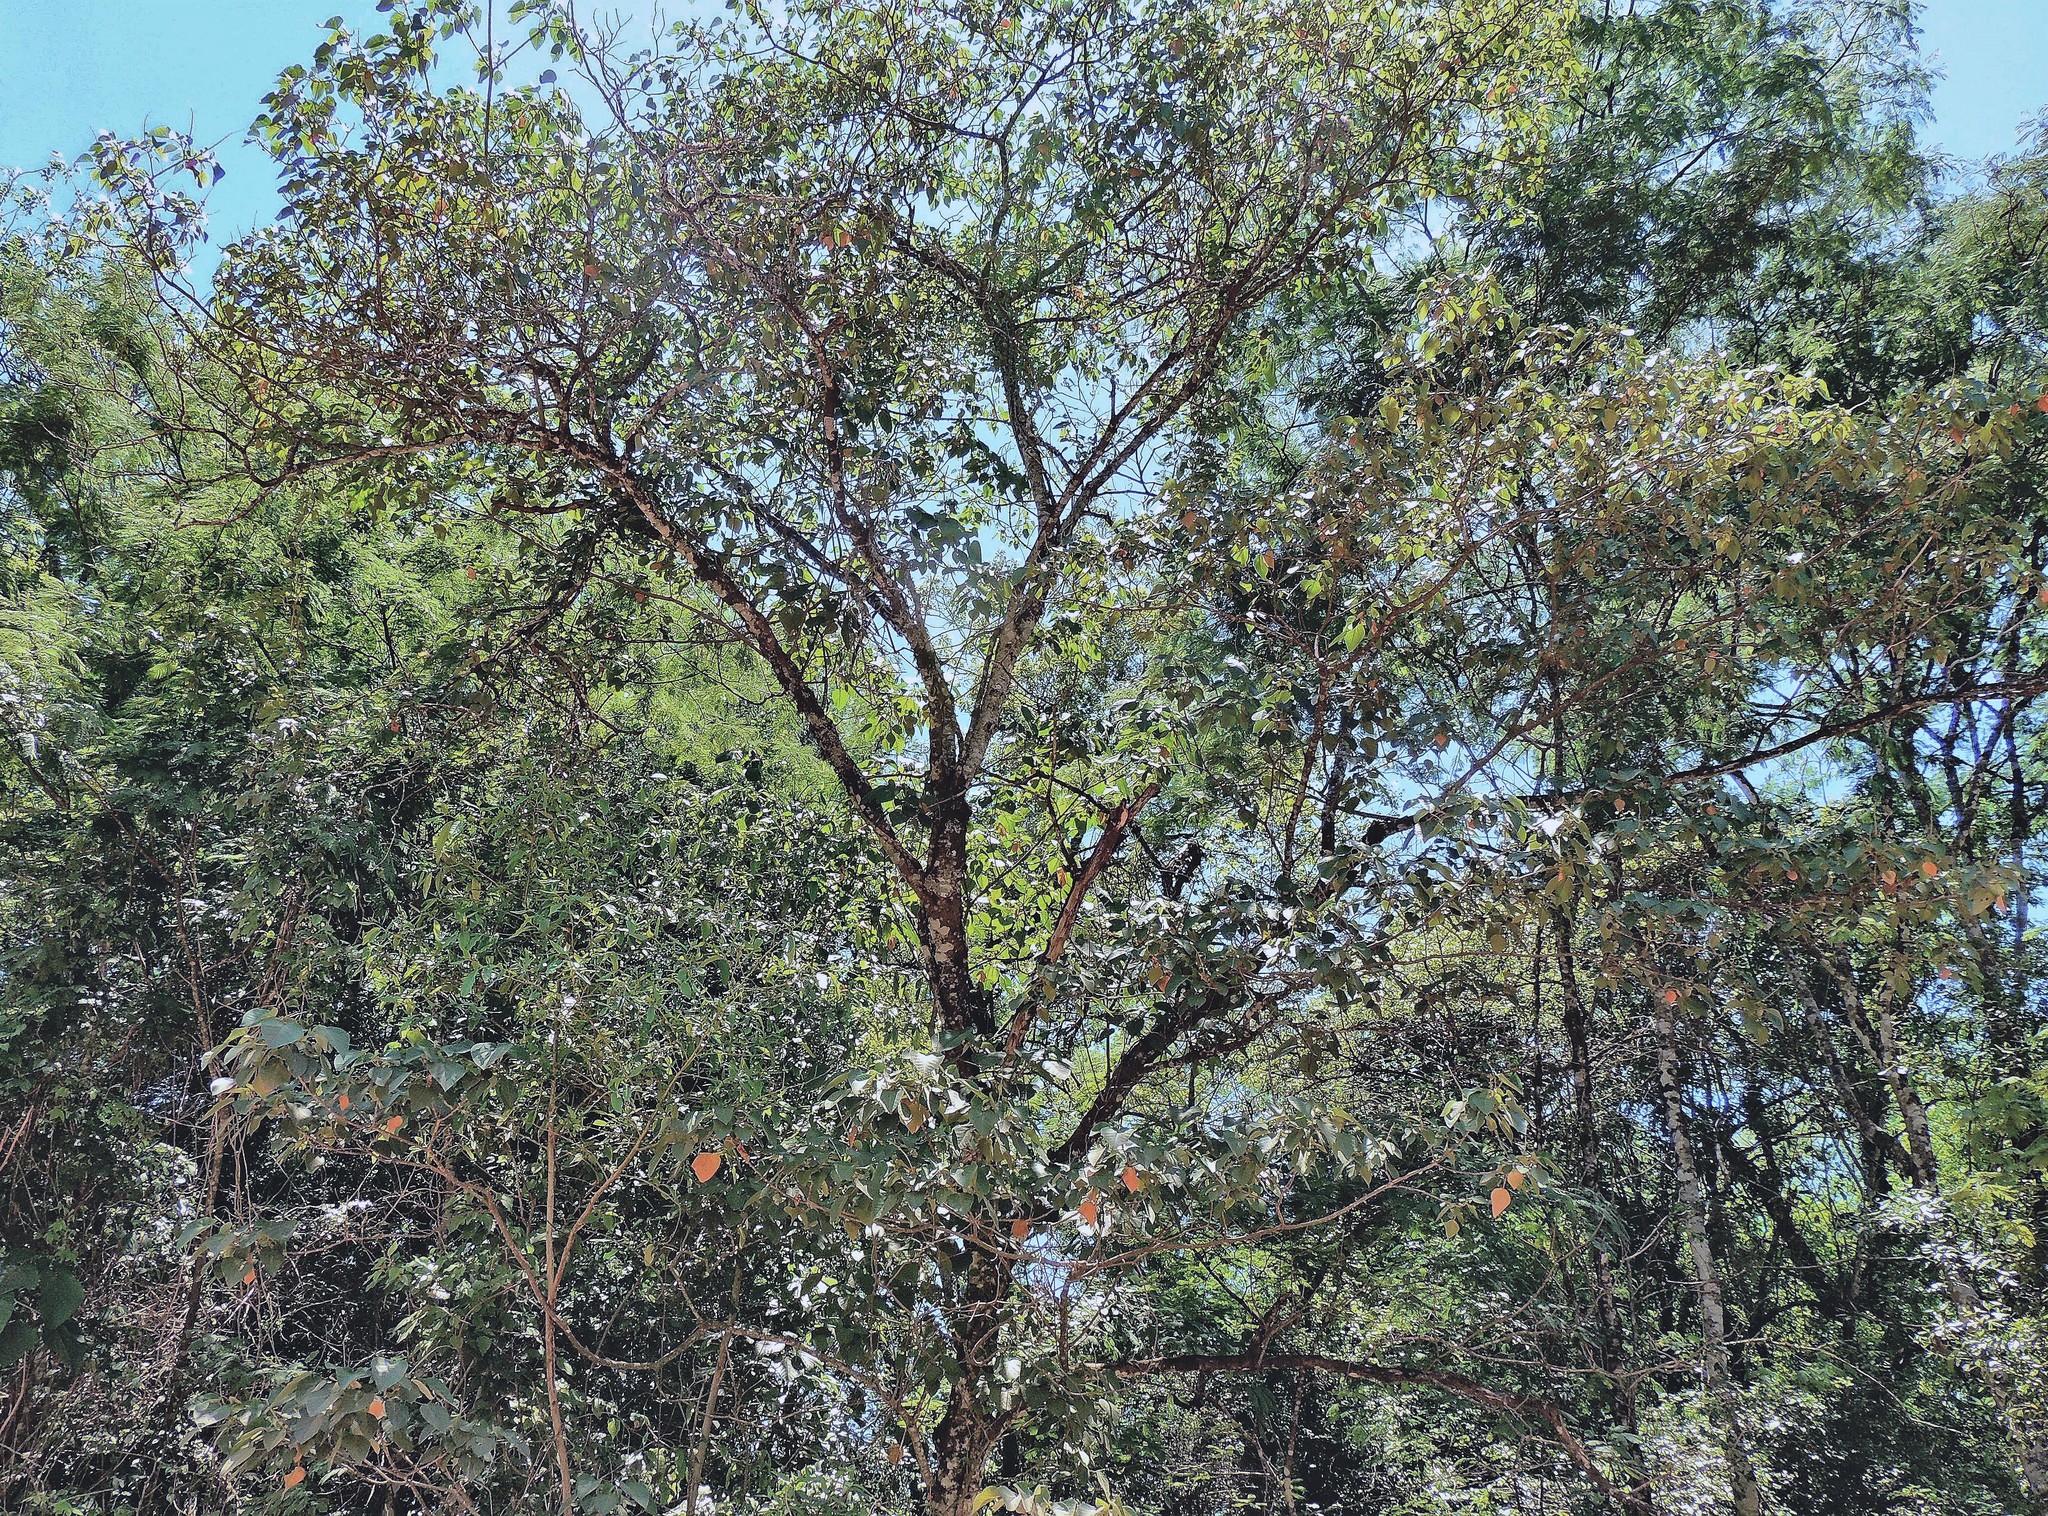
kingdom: Plantae
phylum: Tracheophyta
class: Magnoliopsida
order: Malpighiales
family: Euphorbiaceae
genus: Croton
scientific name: Croton piluliferus
